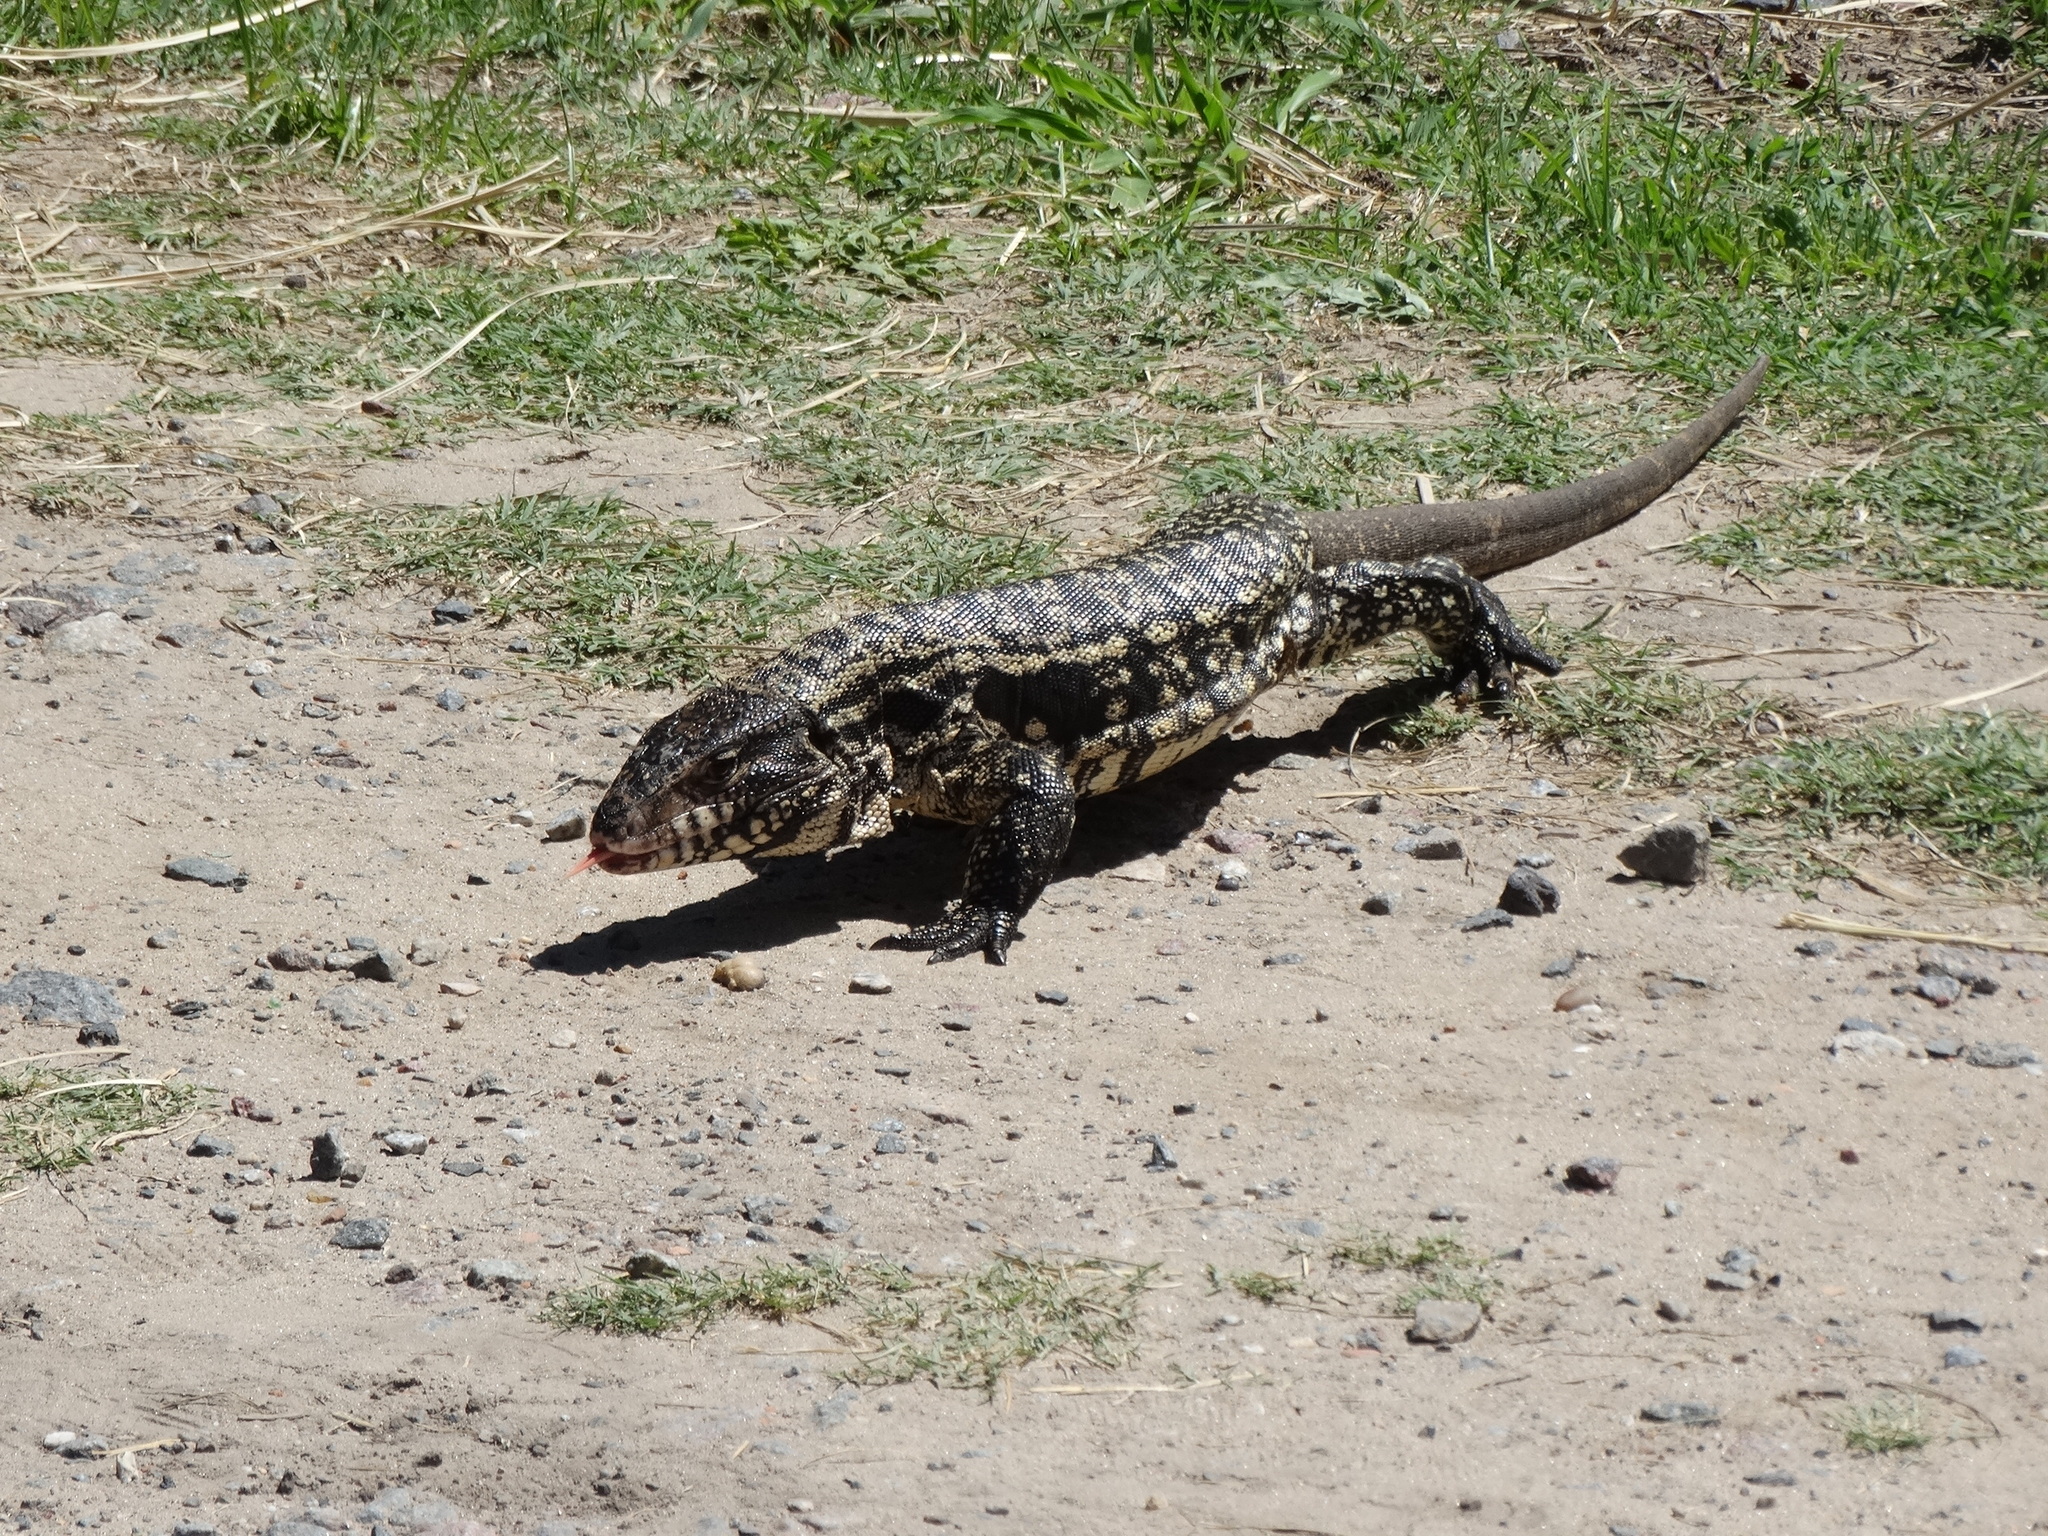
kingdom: Animalia
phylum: Chordata
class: Squamata
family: Teiidae
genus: Salvator
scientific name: Salvator merianae
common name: Argentine black and white tegu
